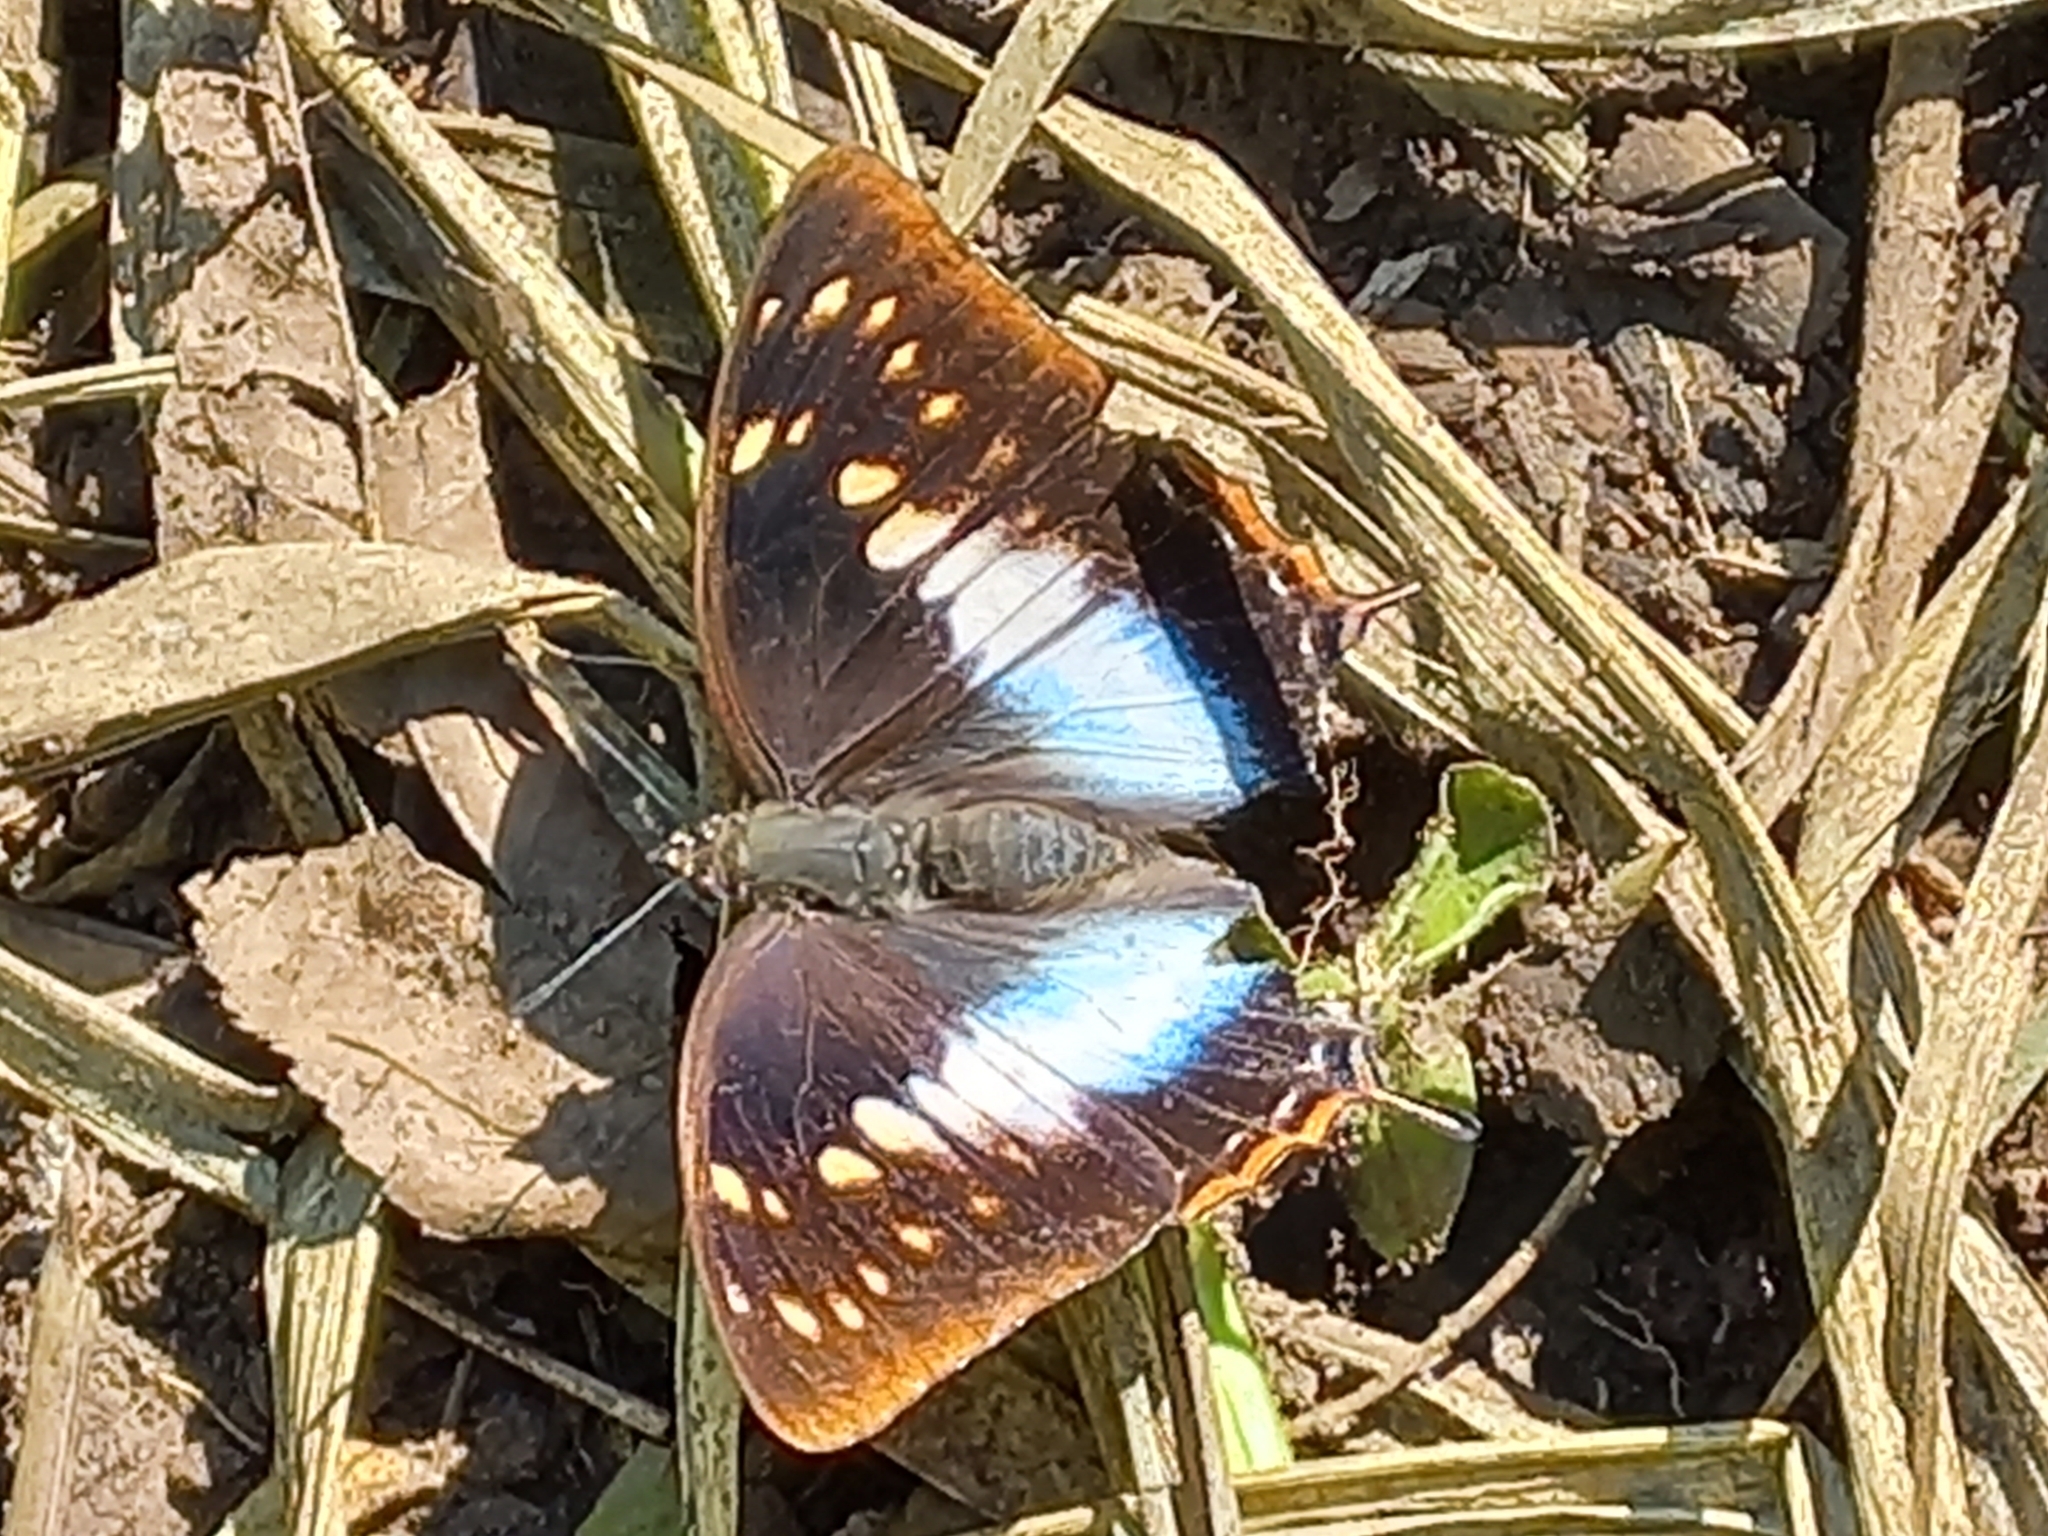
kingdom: Animalia
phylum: Arthropoda
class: Insecta
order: Lepidoptera
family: Nymphalidae
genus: Charaxes
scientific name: Charaxes
